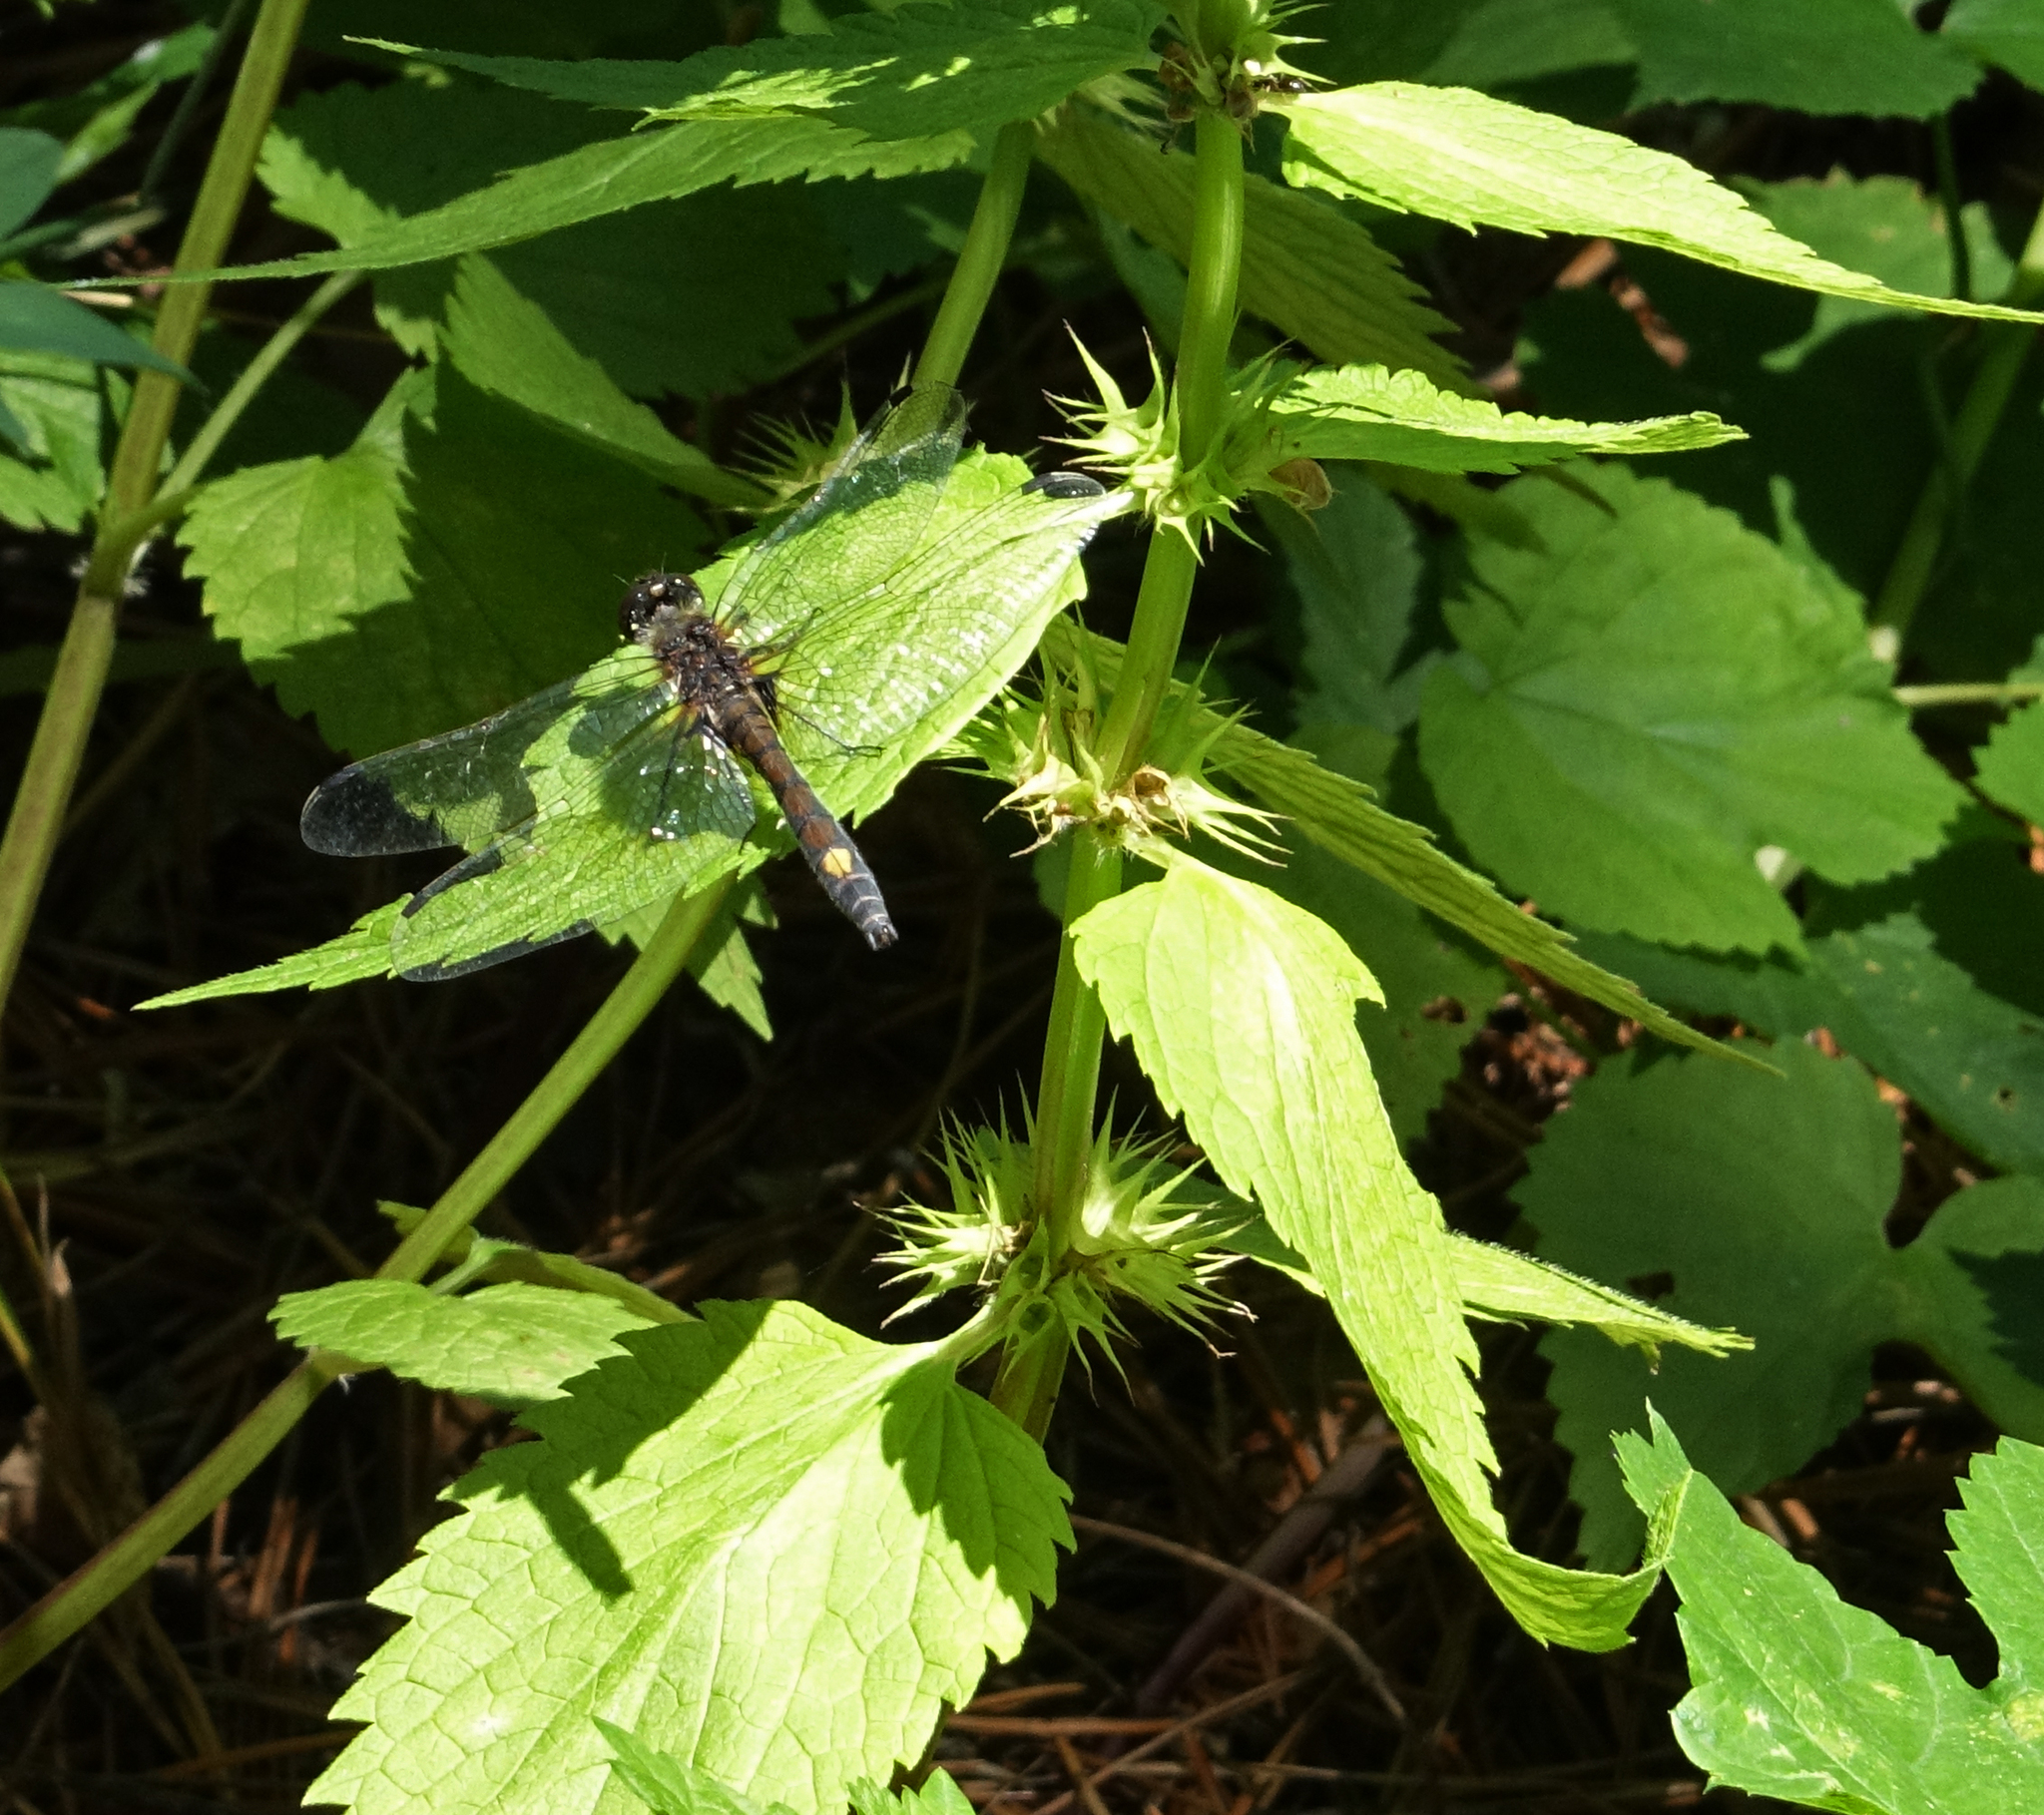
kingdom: Animalia
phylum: Arthropoda
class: Insecta
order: Odonata
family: Libellulidae
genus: Leucorrhinia
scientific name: Leucorrhinia pectoralis
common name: Yellow-spotted whiteface
